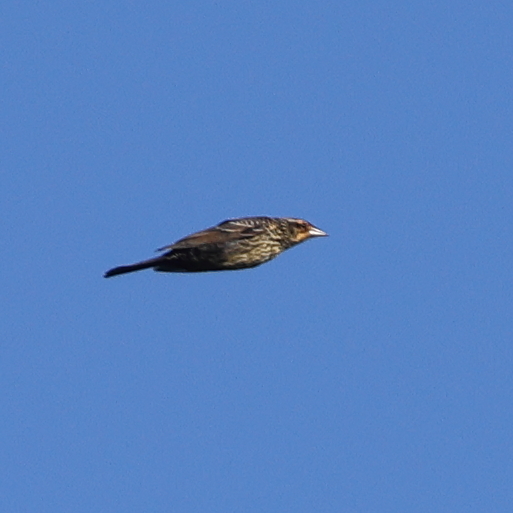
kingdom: Animalia
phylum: Chordata
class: Aves
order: Passeriformes
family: Icteridae
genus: Agelaius
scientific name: Agelaius phoeniceus
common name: Red-winged blackbird
